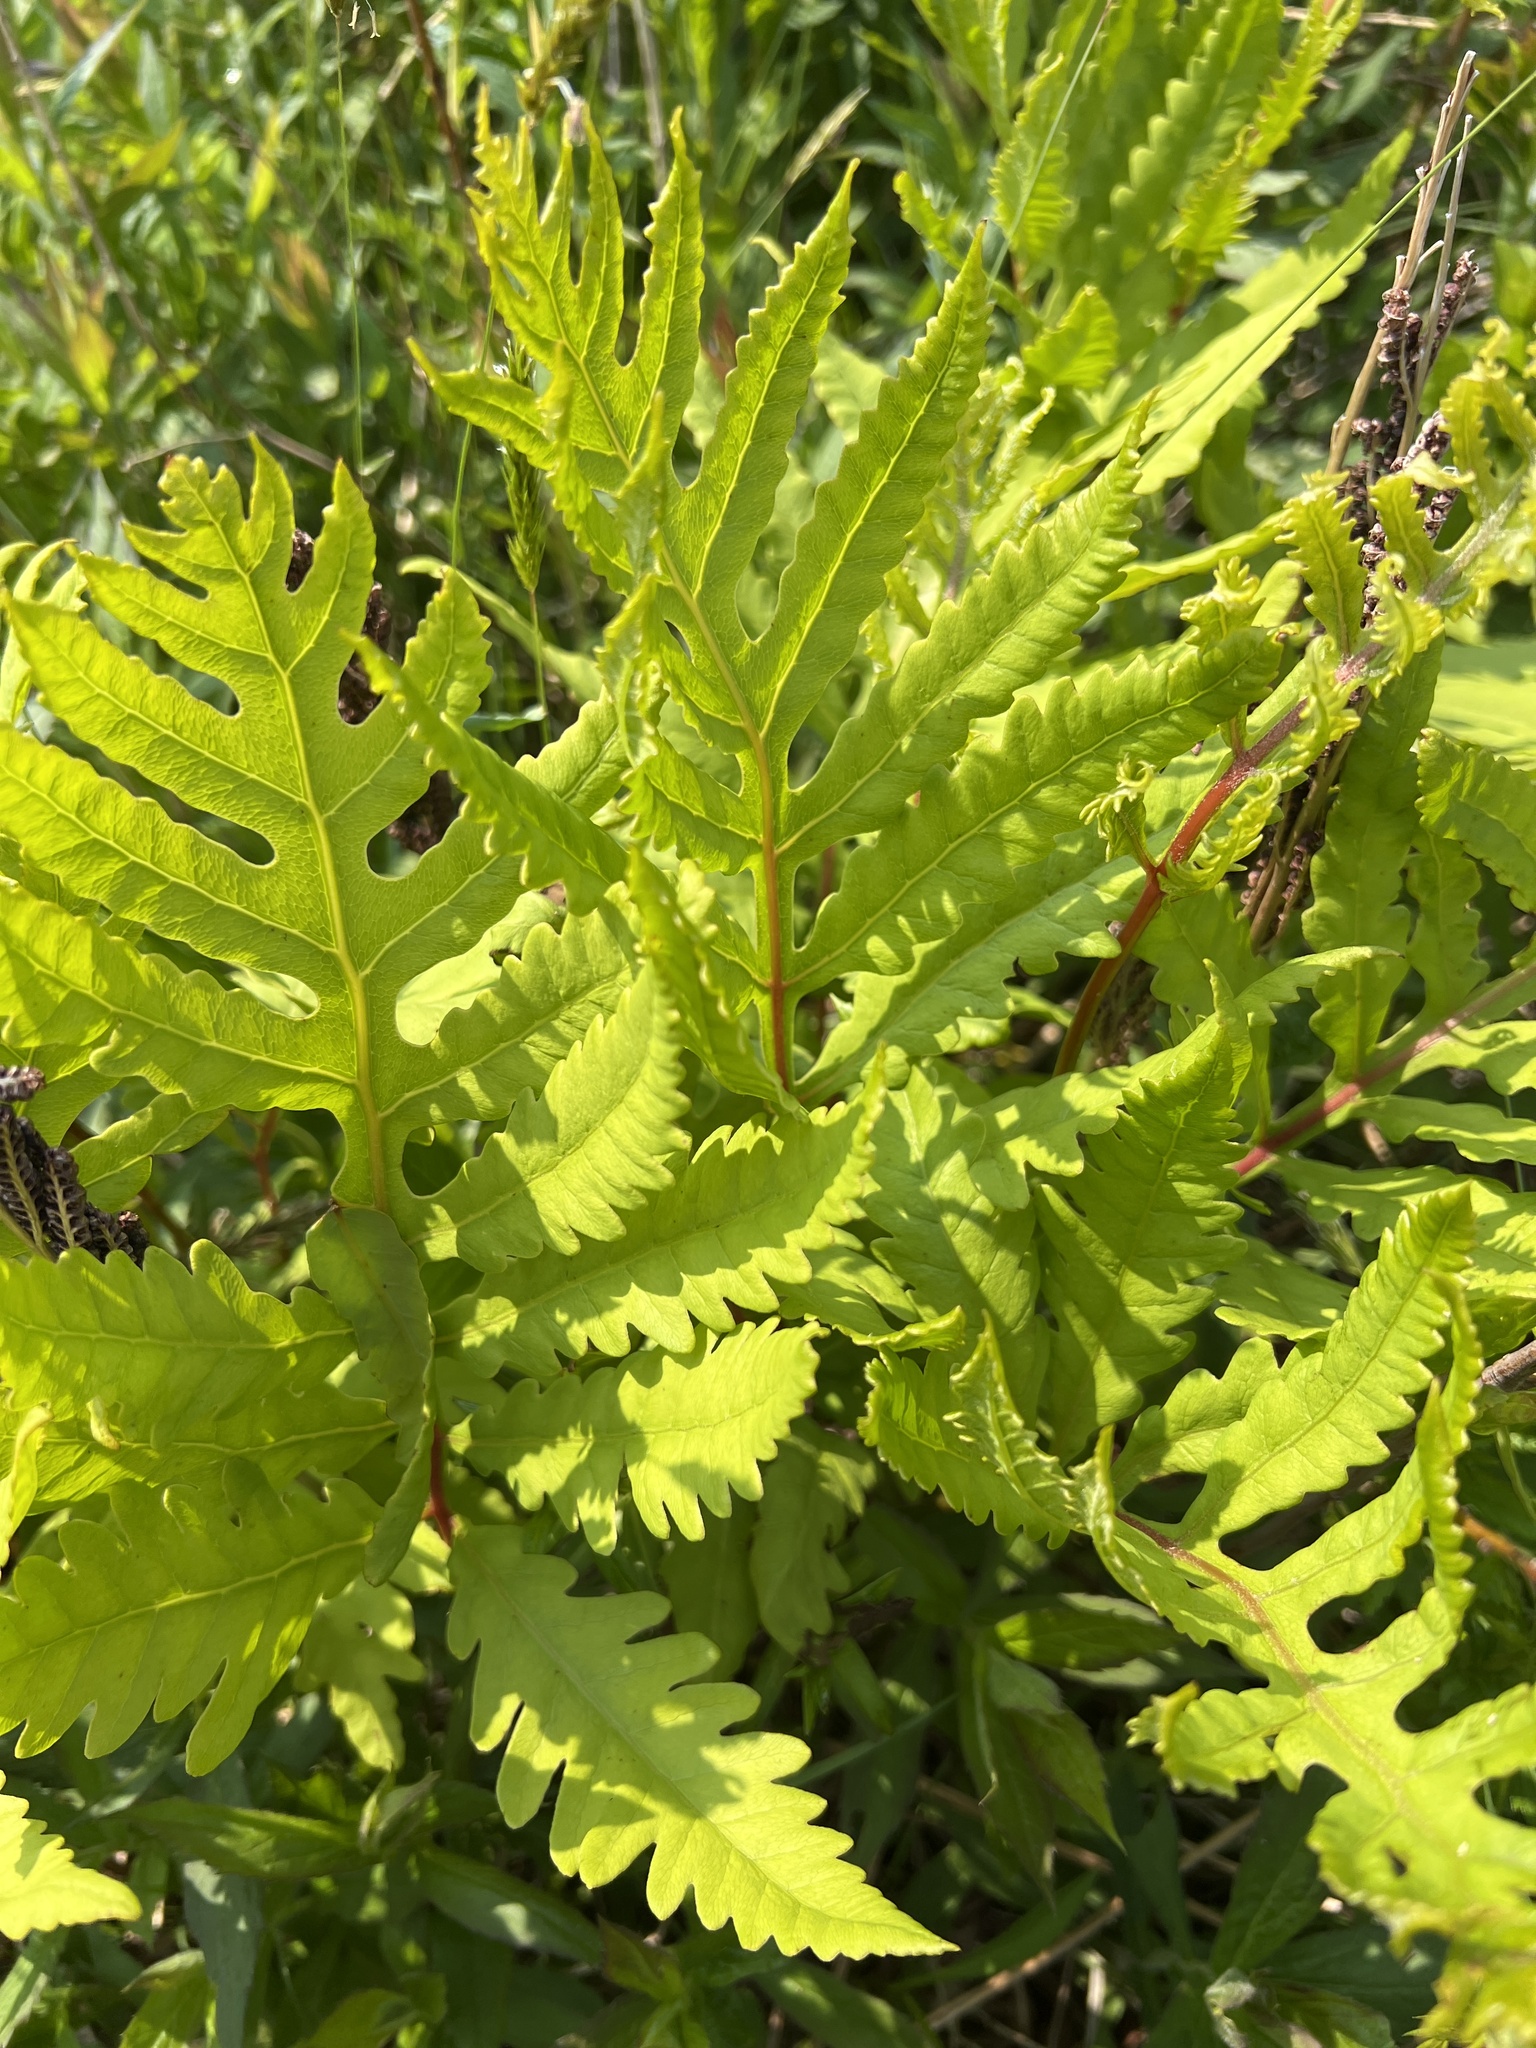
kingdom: Plantae
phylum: Tracheophyta
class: Polypodiopsida
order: Polypodiales
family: Onocleaceae
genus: Onoclea
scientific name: Onoclea sensibilis
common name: Sensitive fern
